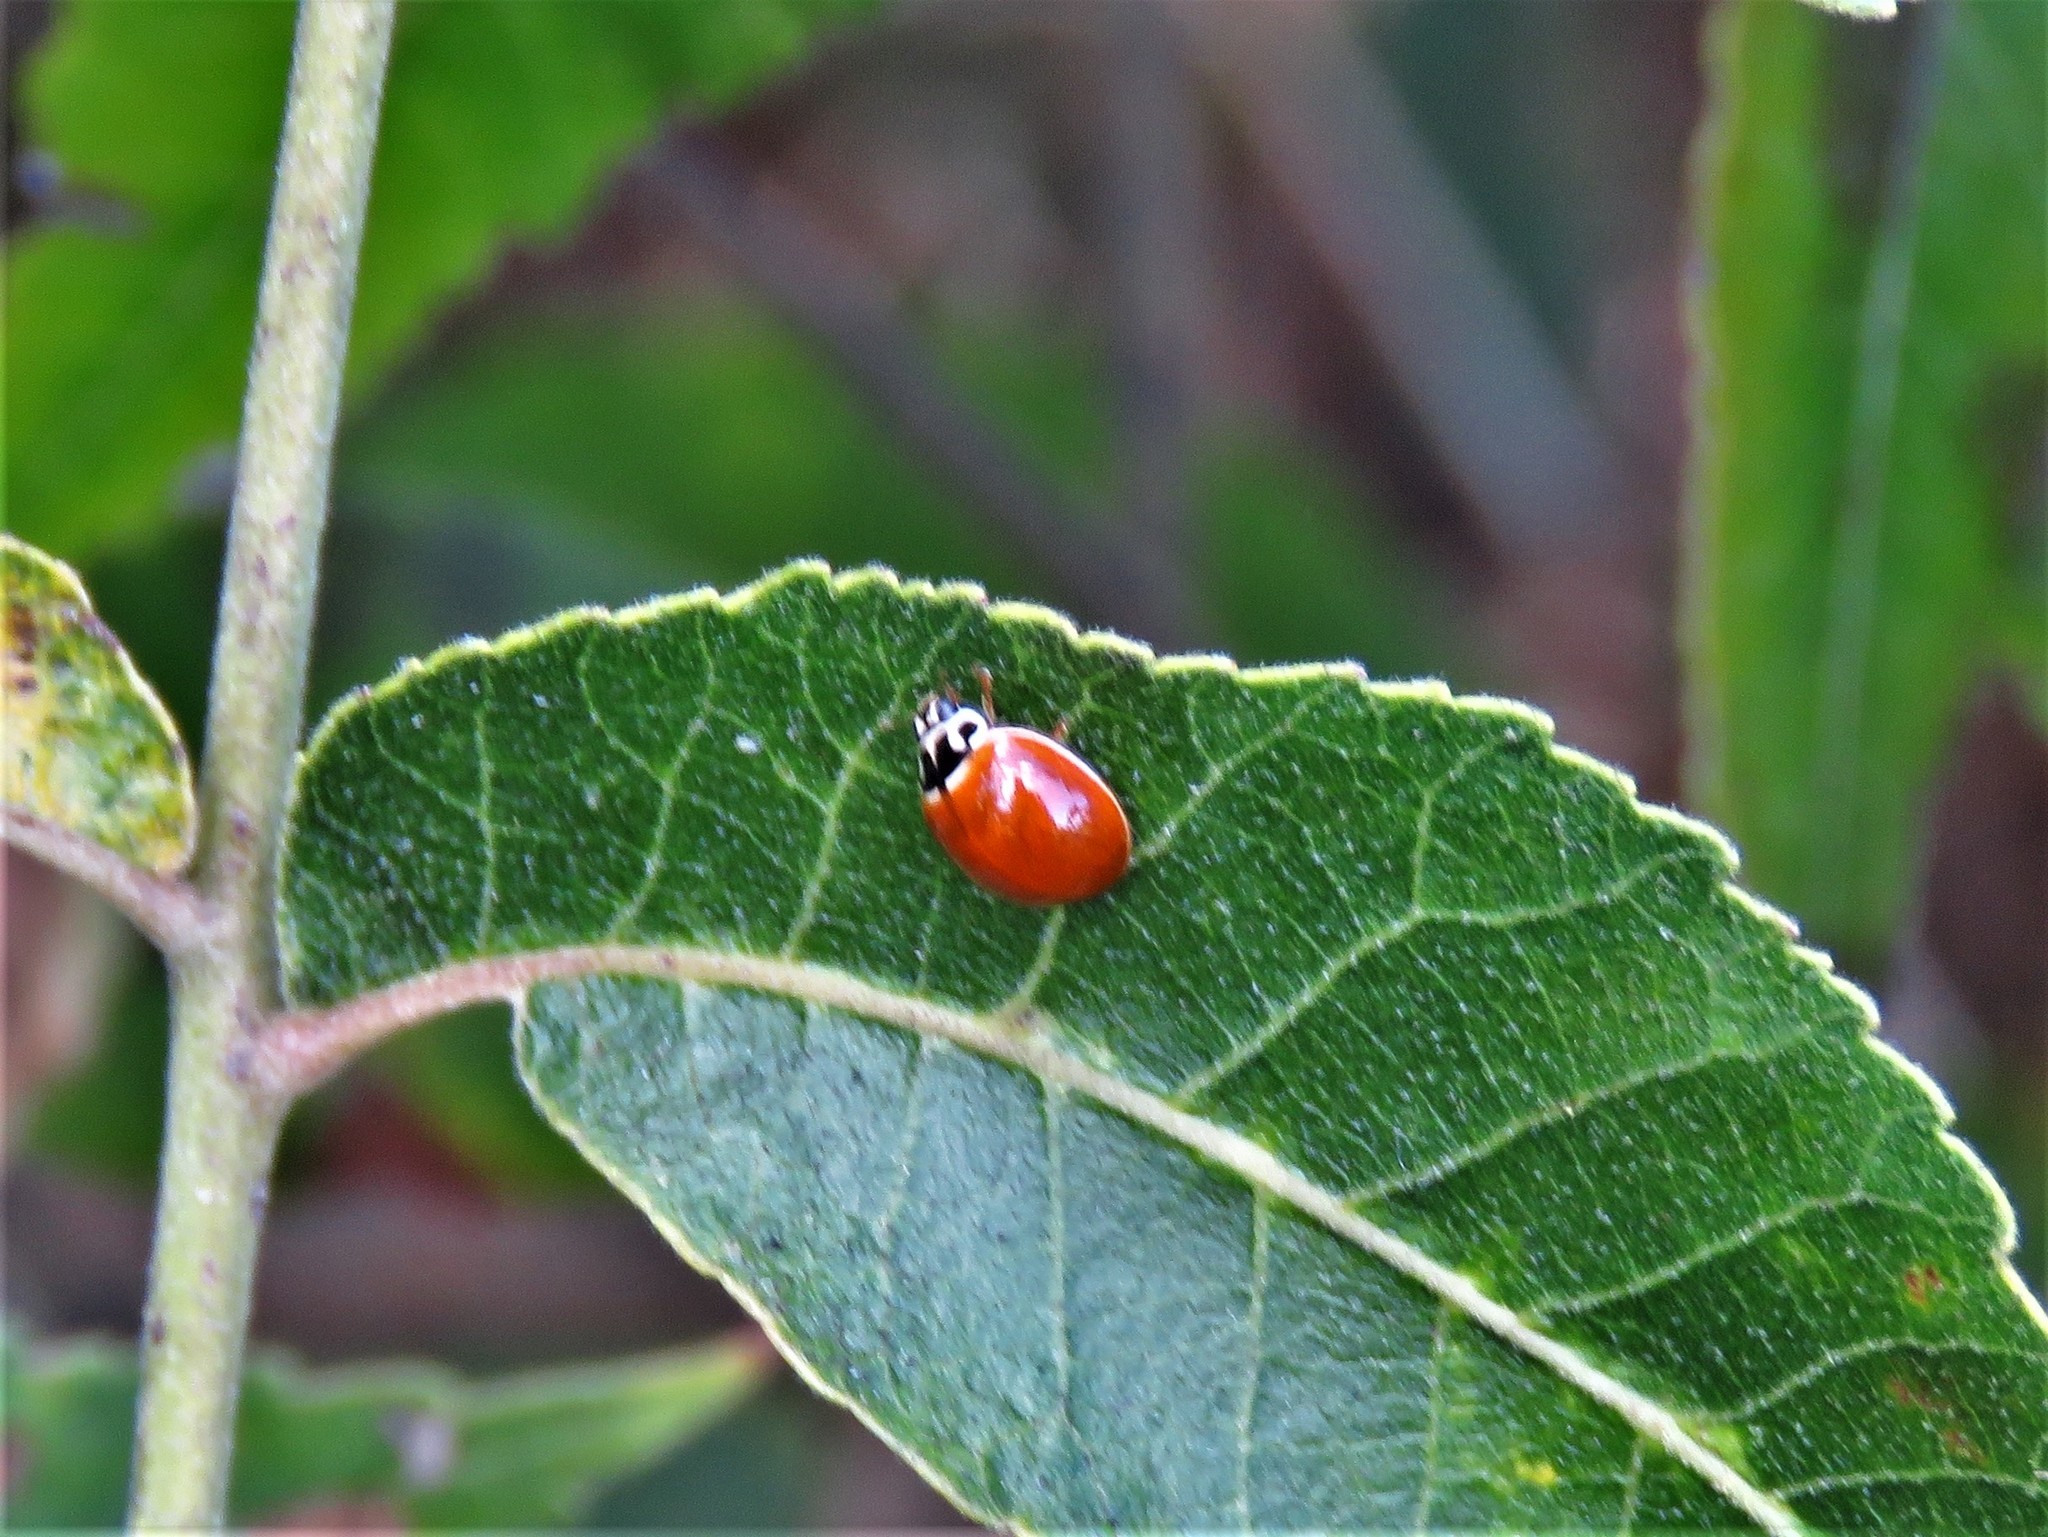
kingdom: Animalia
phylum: Arthropoda
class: Insecta
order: Coleoptera
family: Coccinellidae
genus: Cycloneda
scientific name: Cycloneda munda
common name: Polished lady beetle
